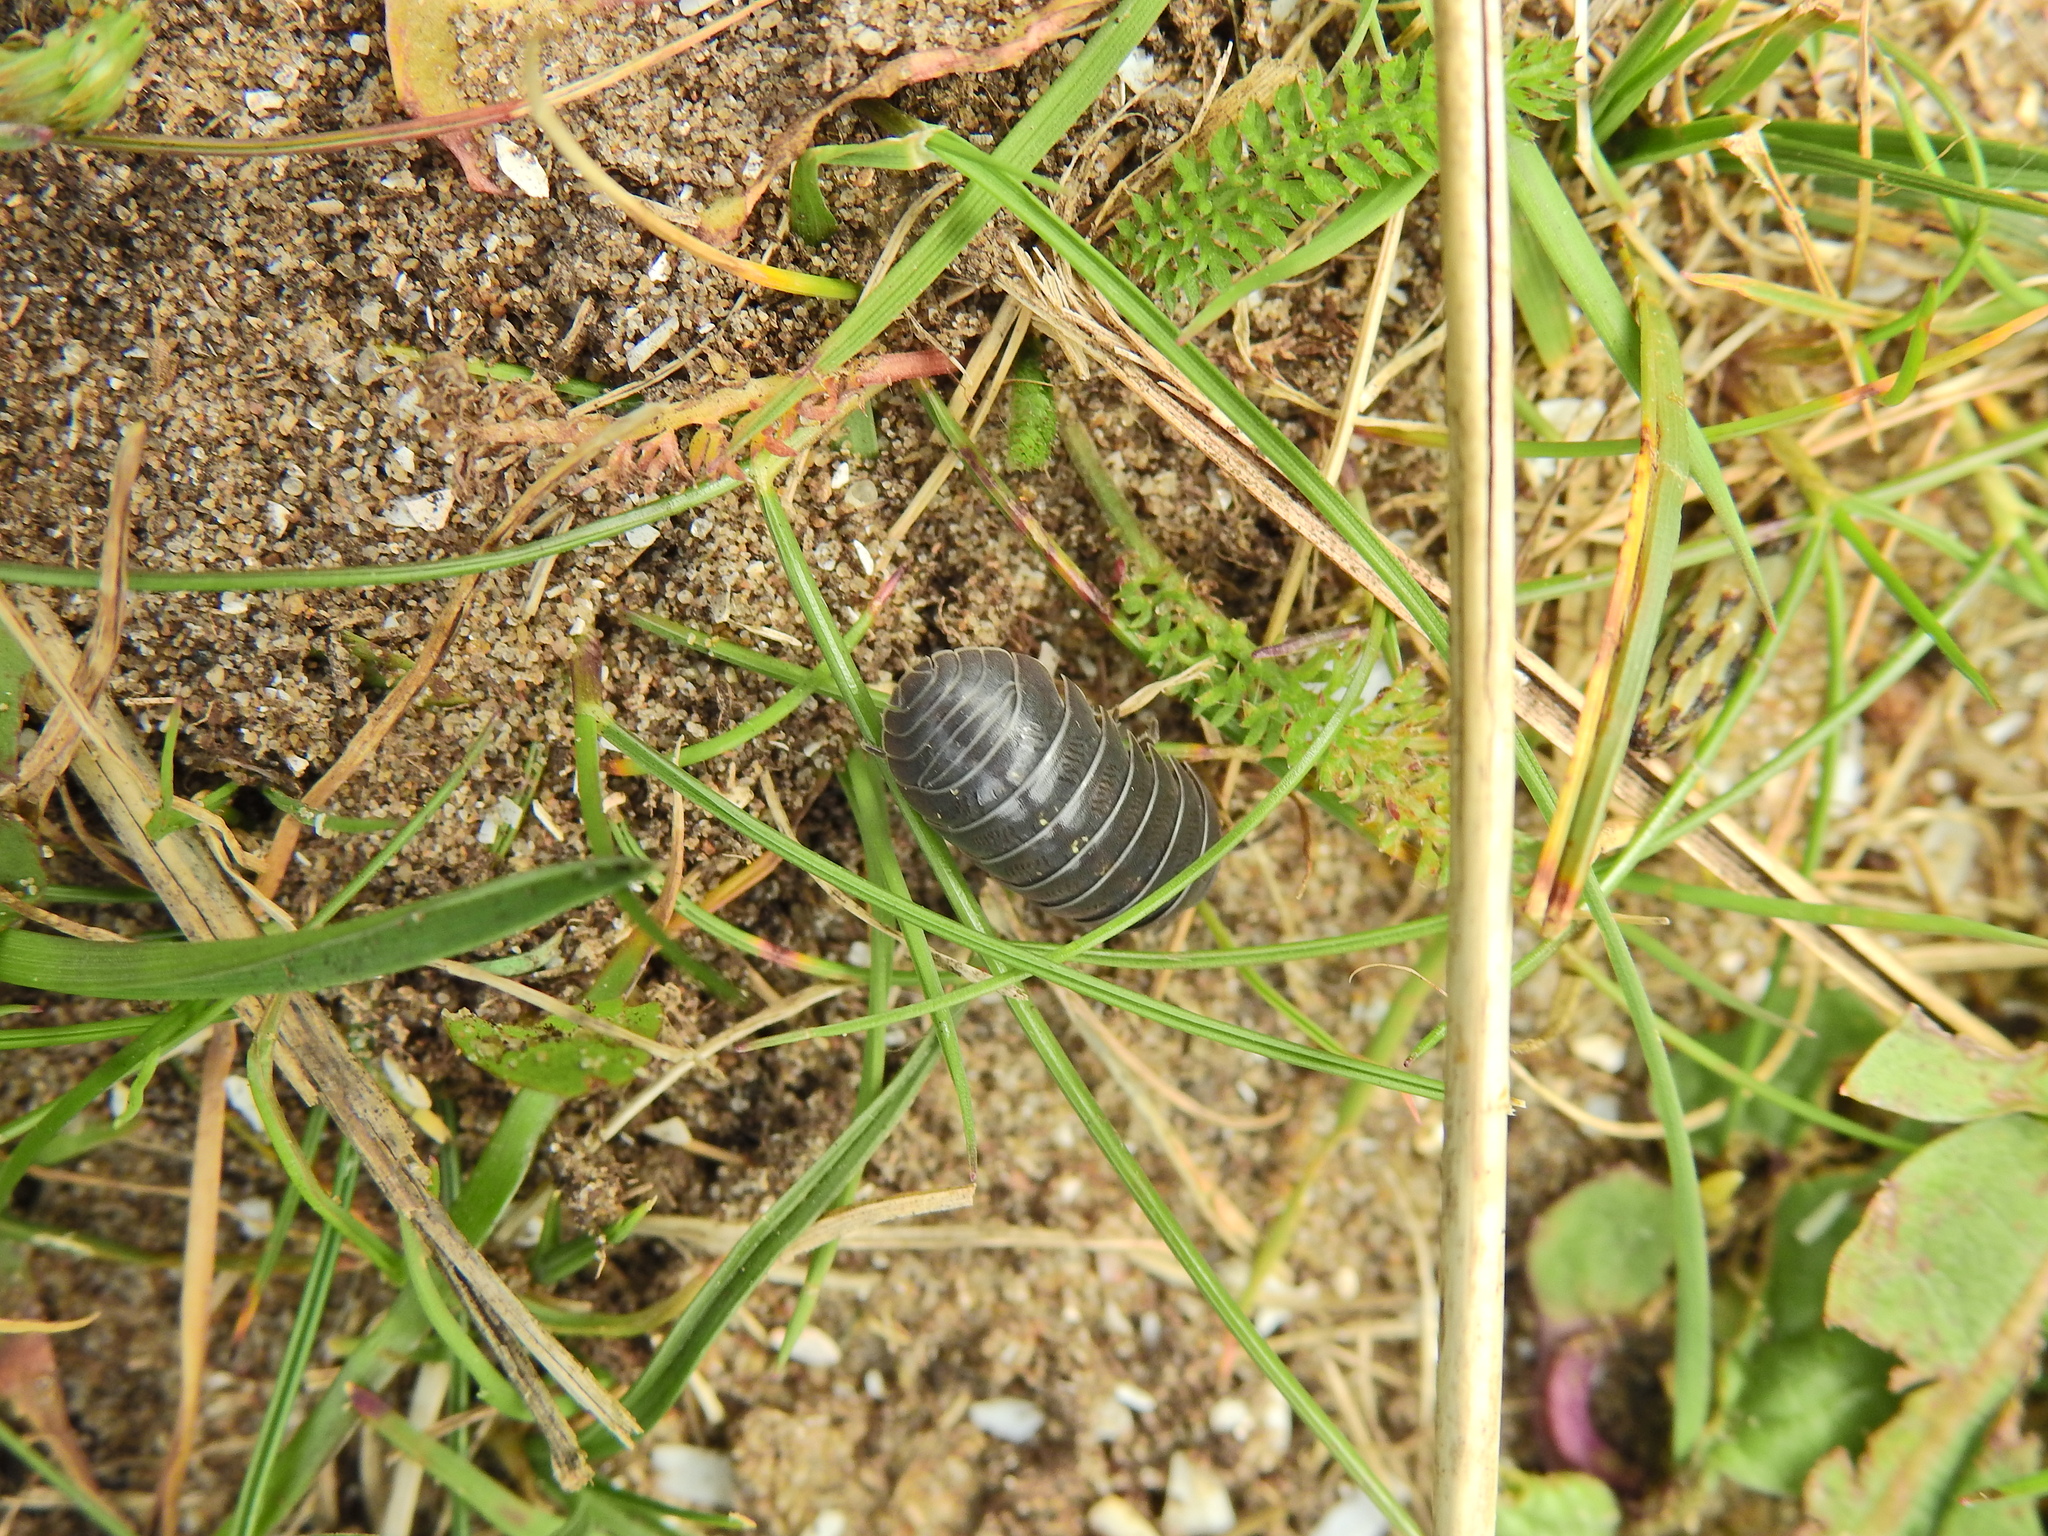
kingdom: Animalia
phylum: Arthropoda
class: Malacostraca
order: Isopoda
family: Armadillidiidae
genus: Armadillidium
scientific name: Armadillidium vulgare
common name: Common pill woodlouse
